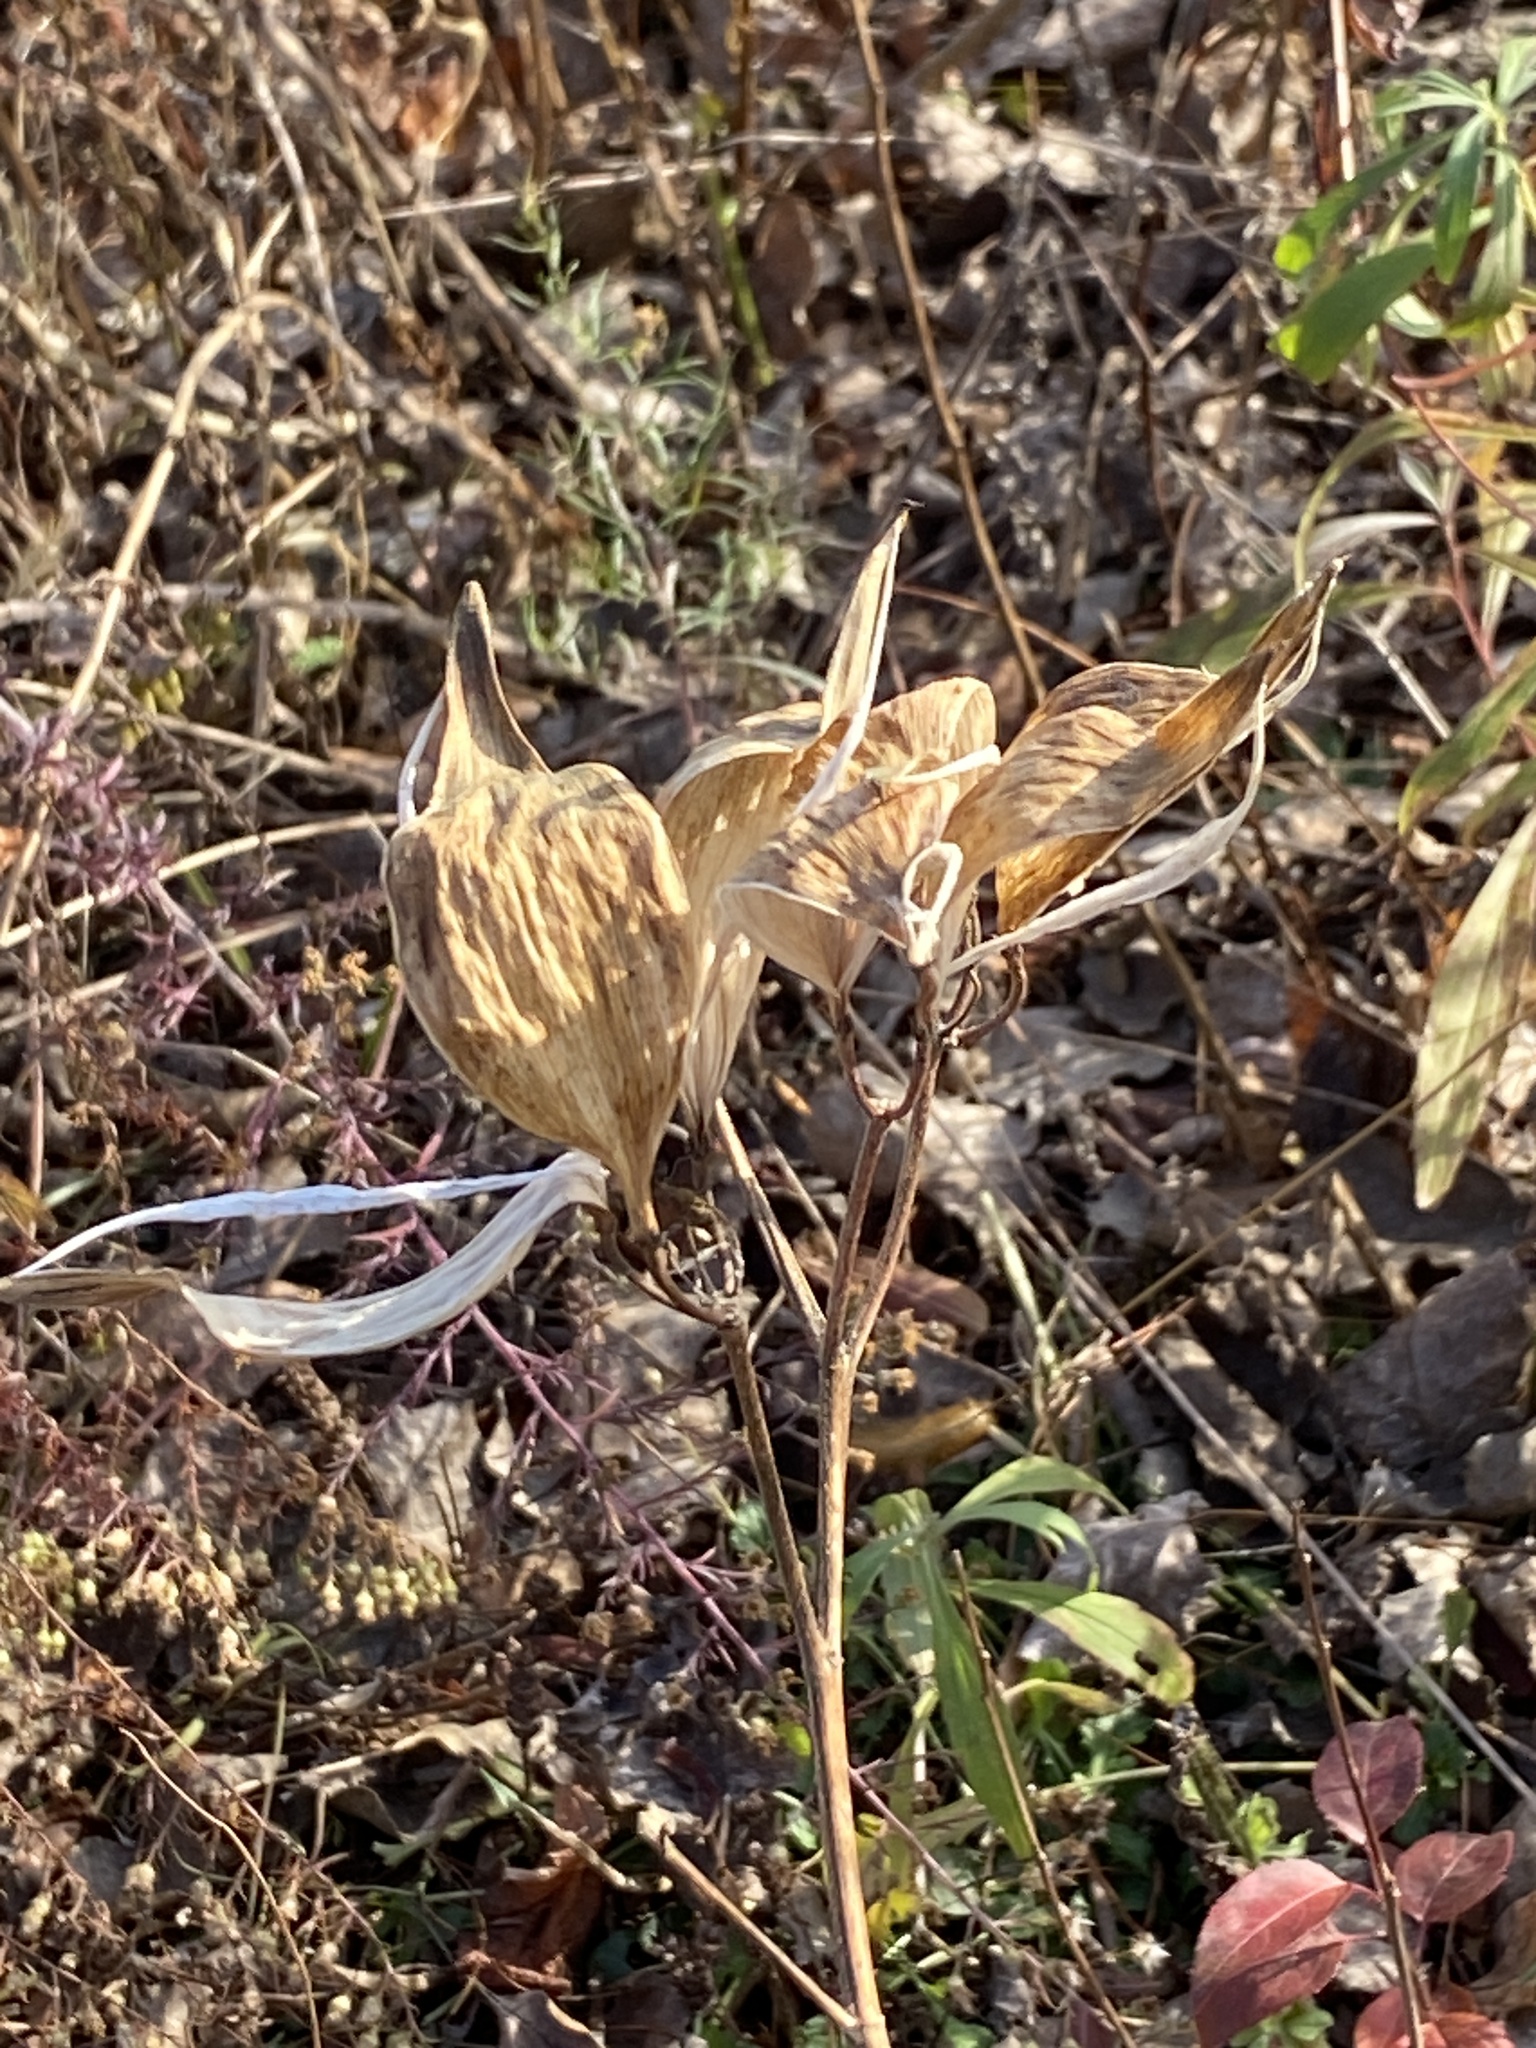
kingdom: Plantae
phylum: Tracheophyta
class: Magnoliopsida
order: Gentianales
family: Apocynaceae
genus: Asclepias
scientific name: Asclepias incarnata
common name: Swamp milkweed
